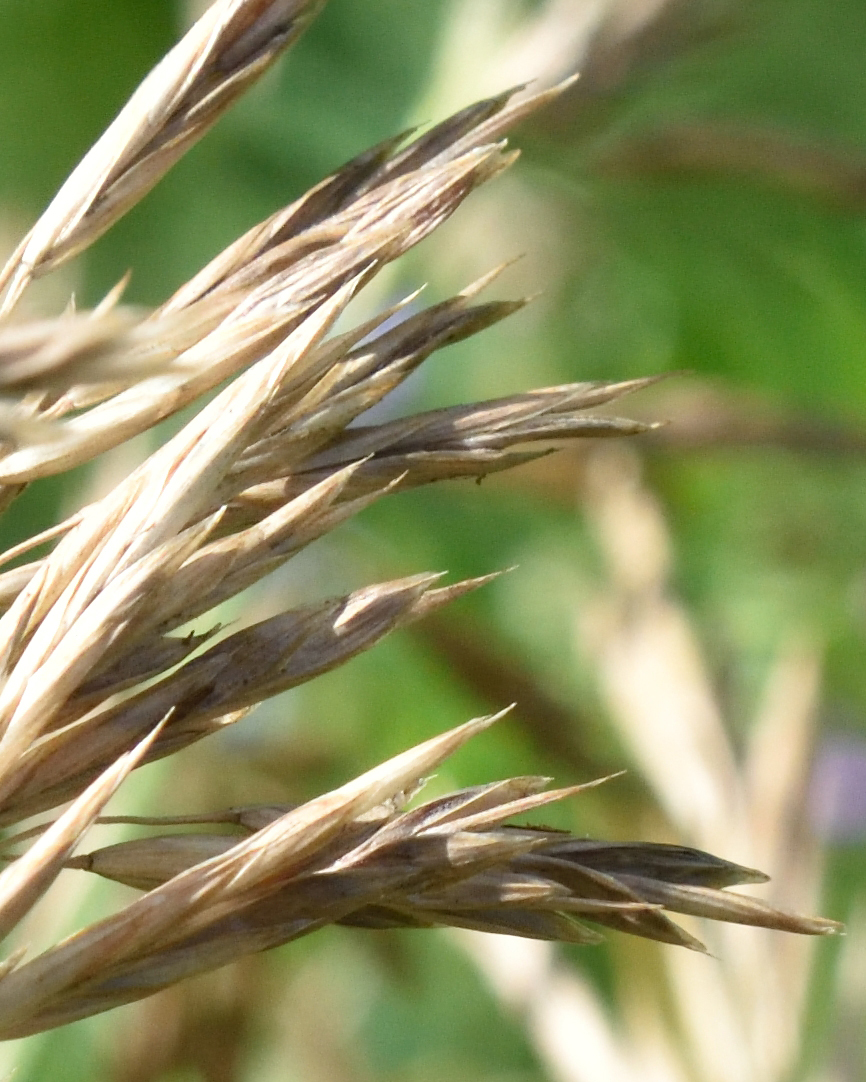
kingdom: Plantae
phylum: Tracheophyta
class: Liliopsida
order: Poales
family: Poaceae
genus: Bromus
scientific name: Bromus inermis
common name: Smooth brome
